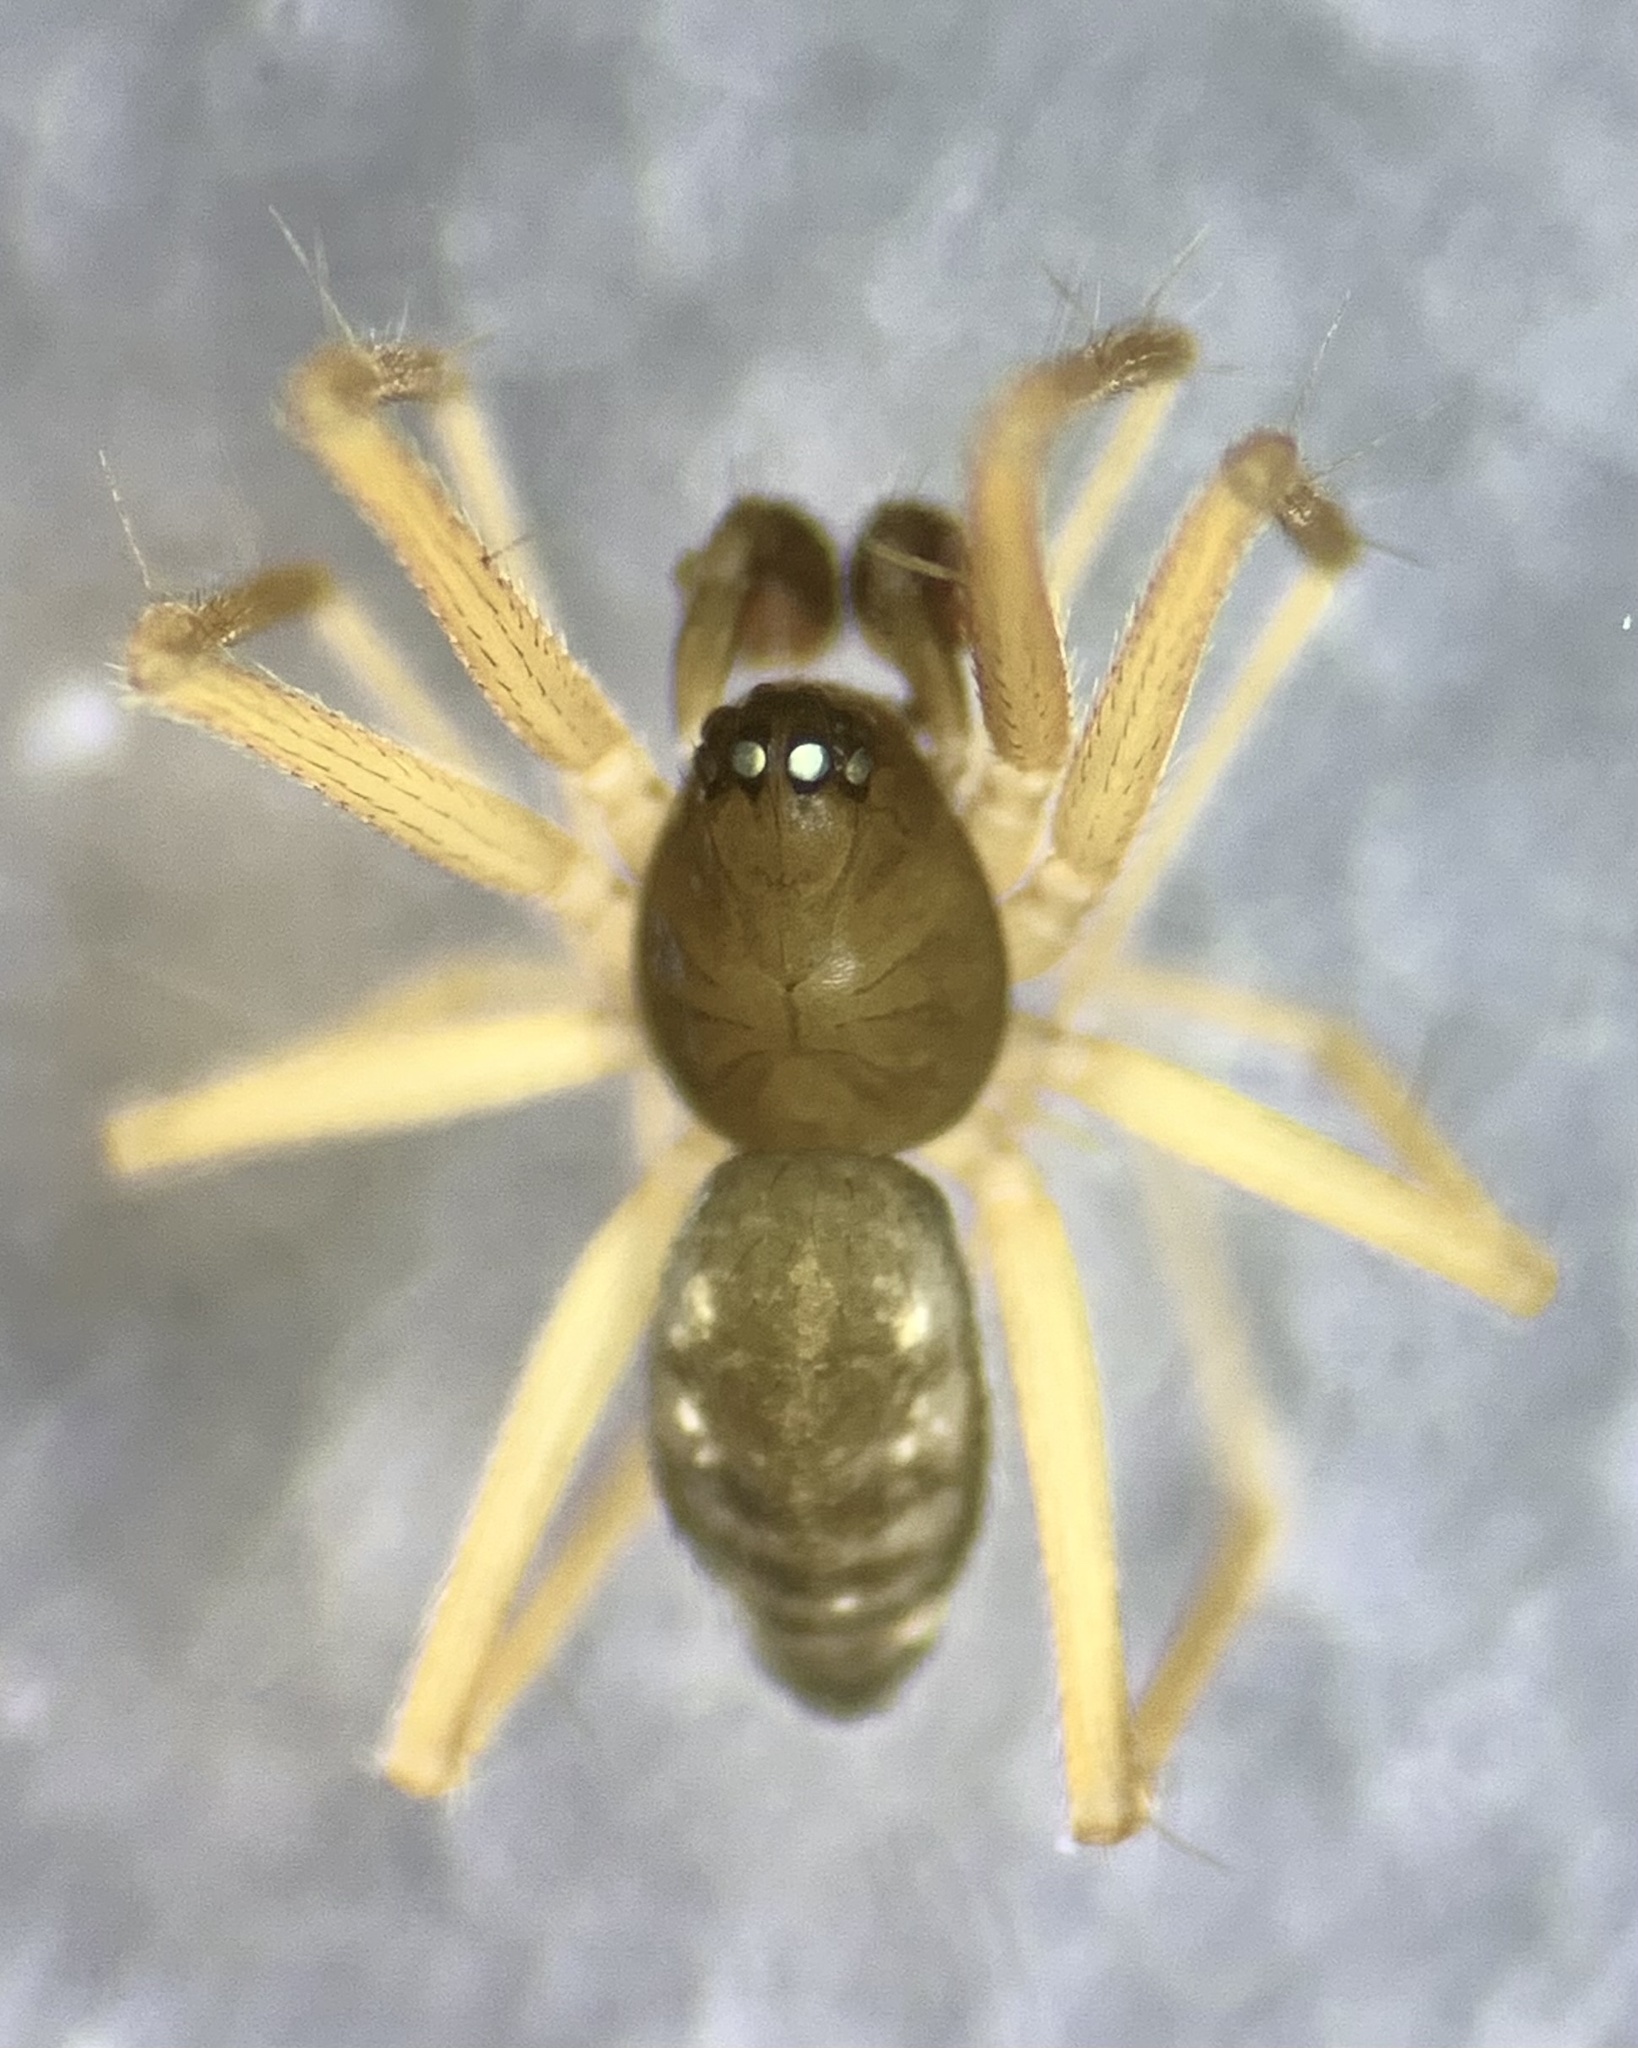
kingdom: Animalia
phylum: Arthropoda
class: Arachnida
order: Araneae
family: Linyphiidae
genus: Tenuiphantes
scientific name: Tenuiphantes flavipes
